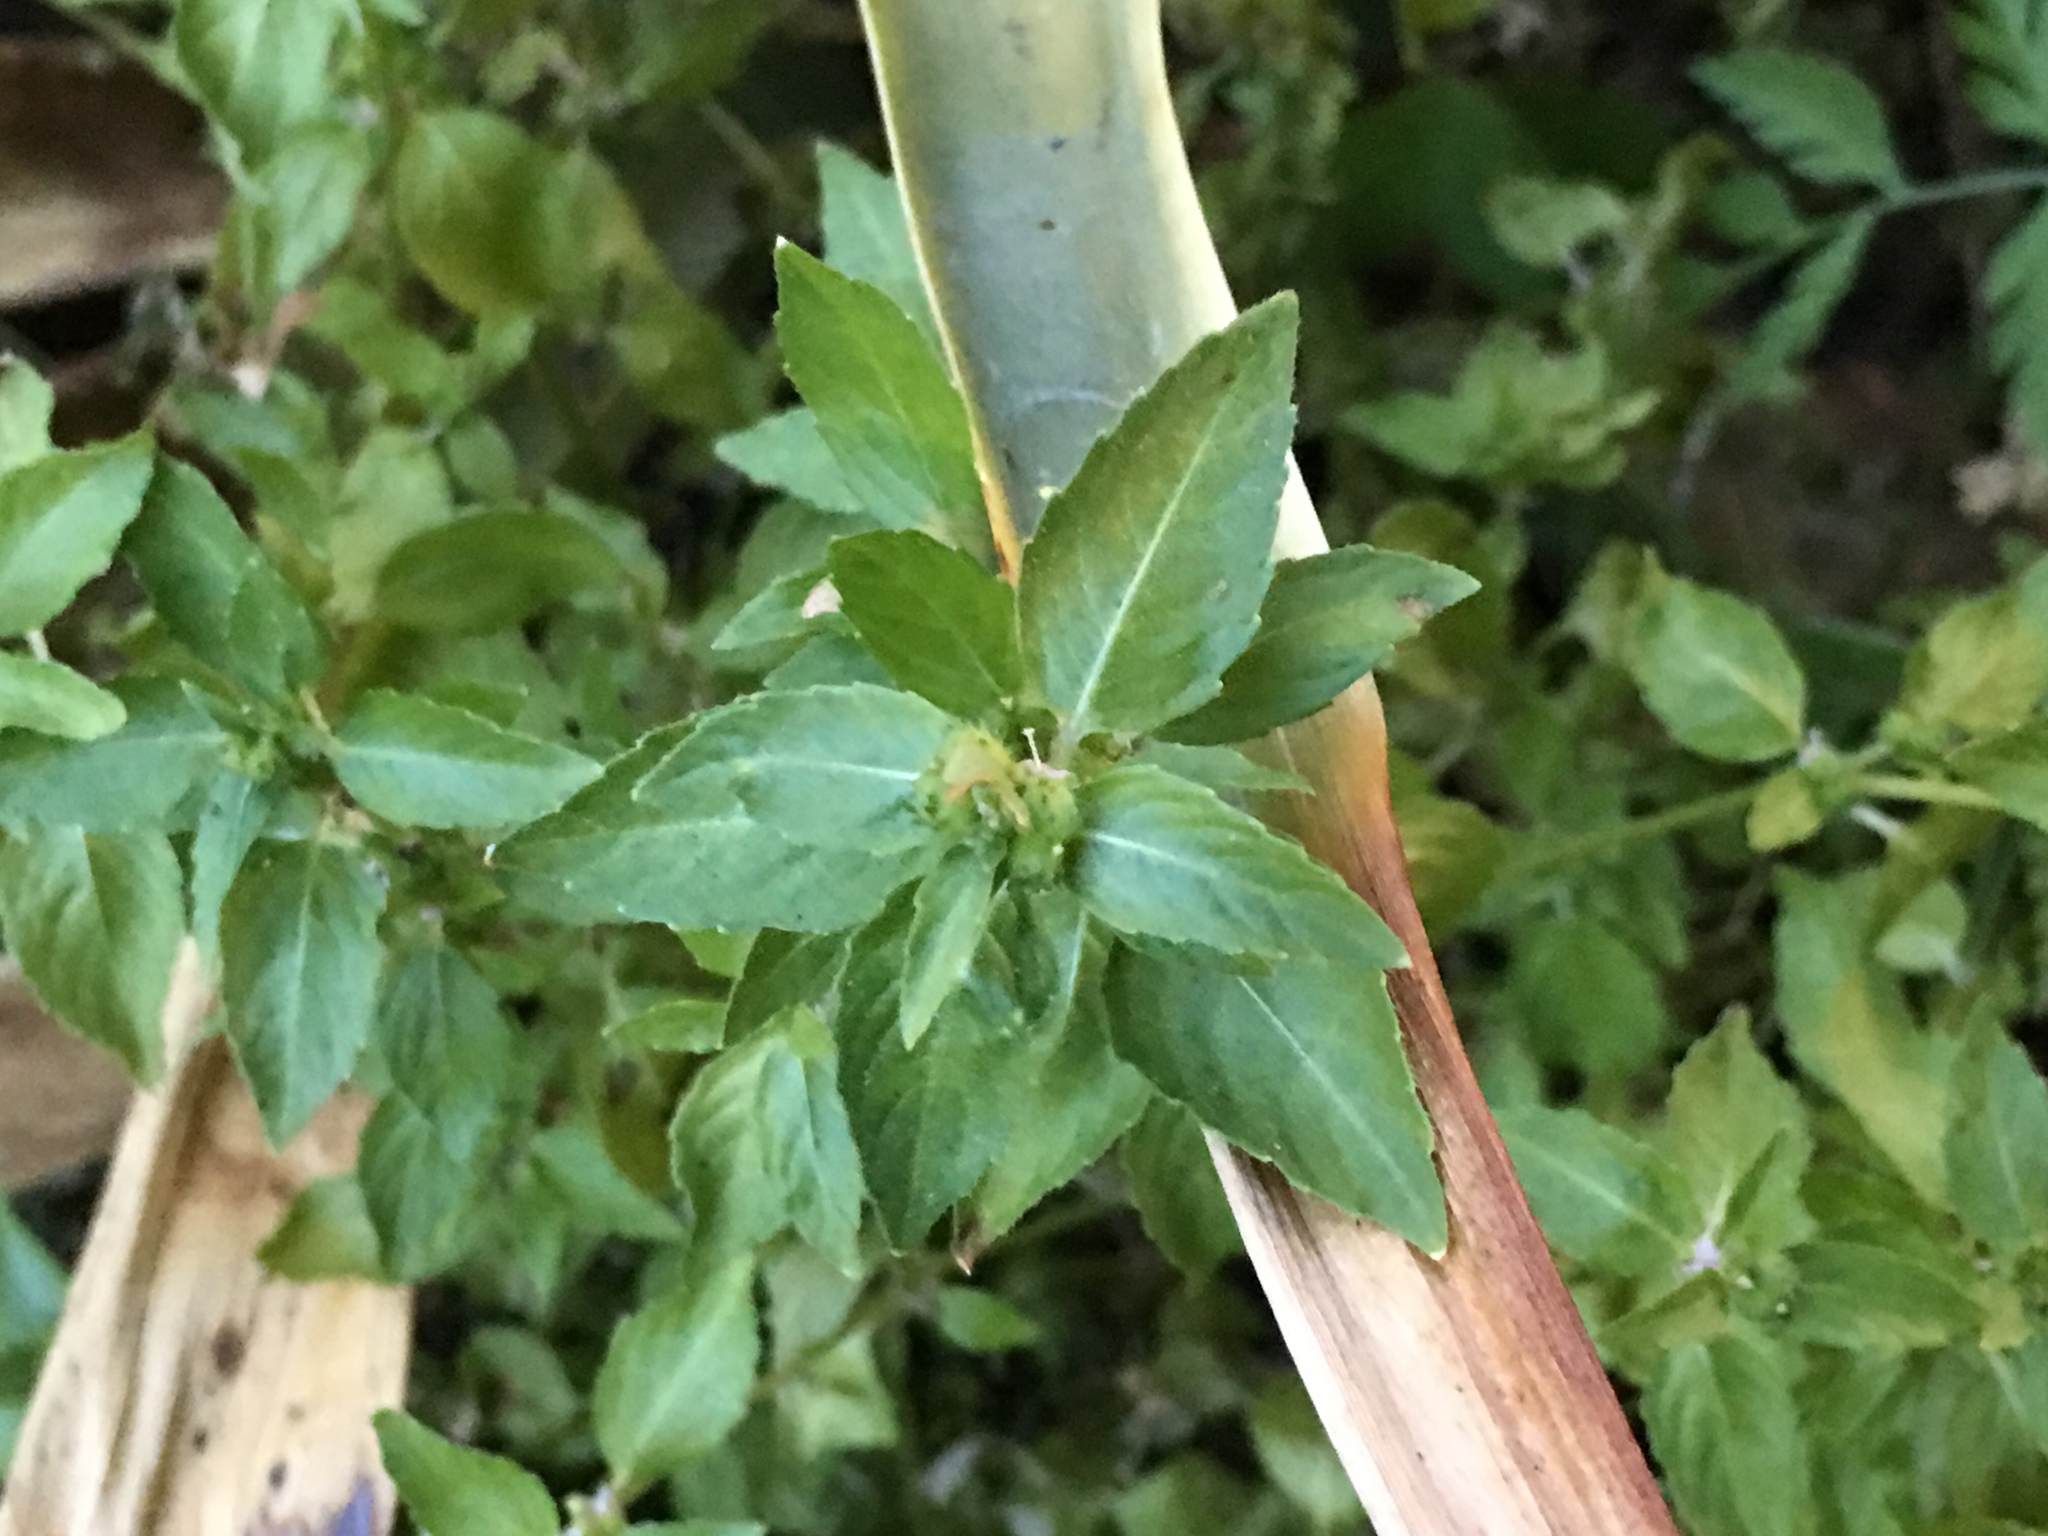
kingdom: Plantae
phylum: Tracheophyta
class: Magnoliopsida
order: Malpighiales
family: Euphorbiaceae
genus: Mercurialis
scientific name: Mercurialis annua
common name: Annual mercury
